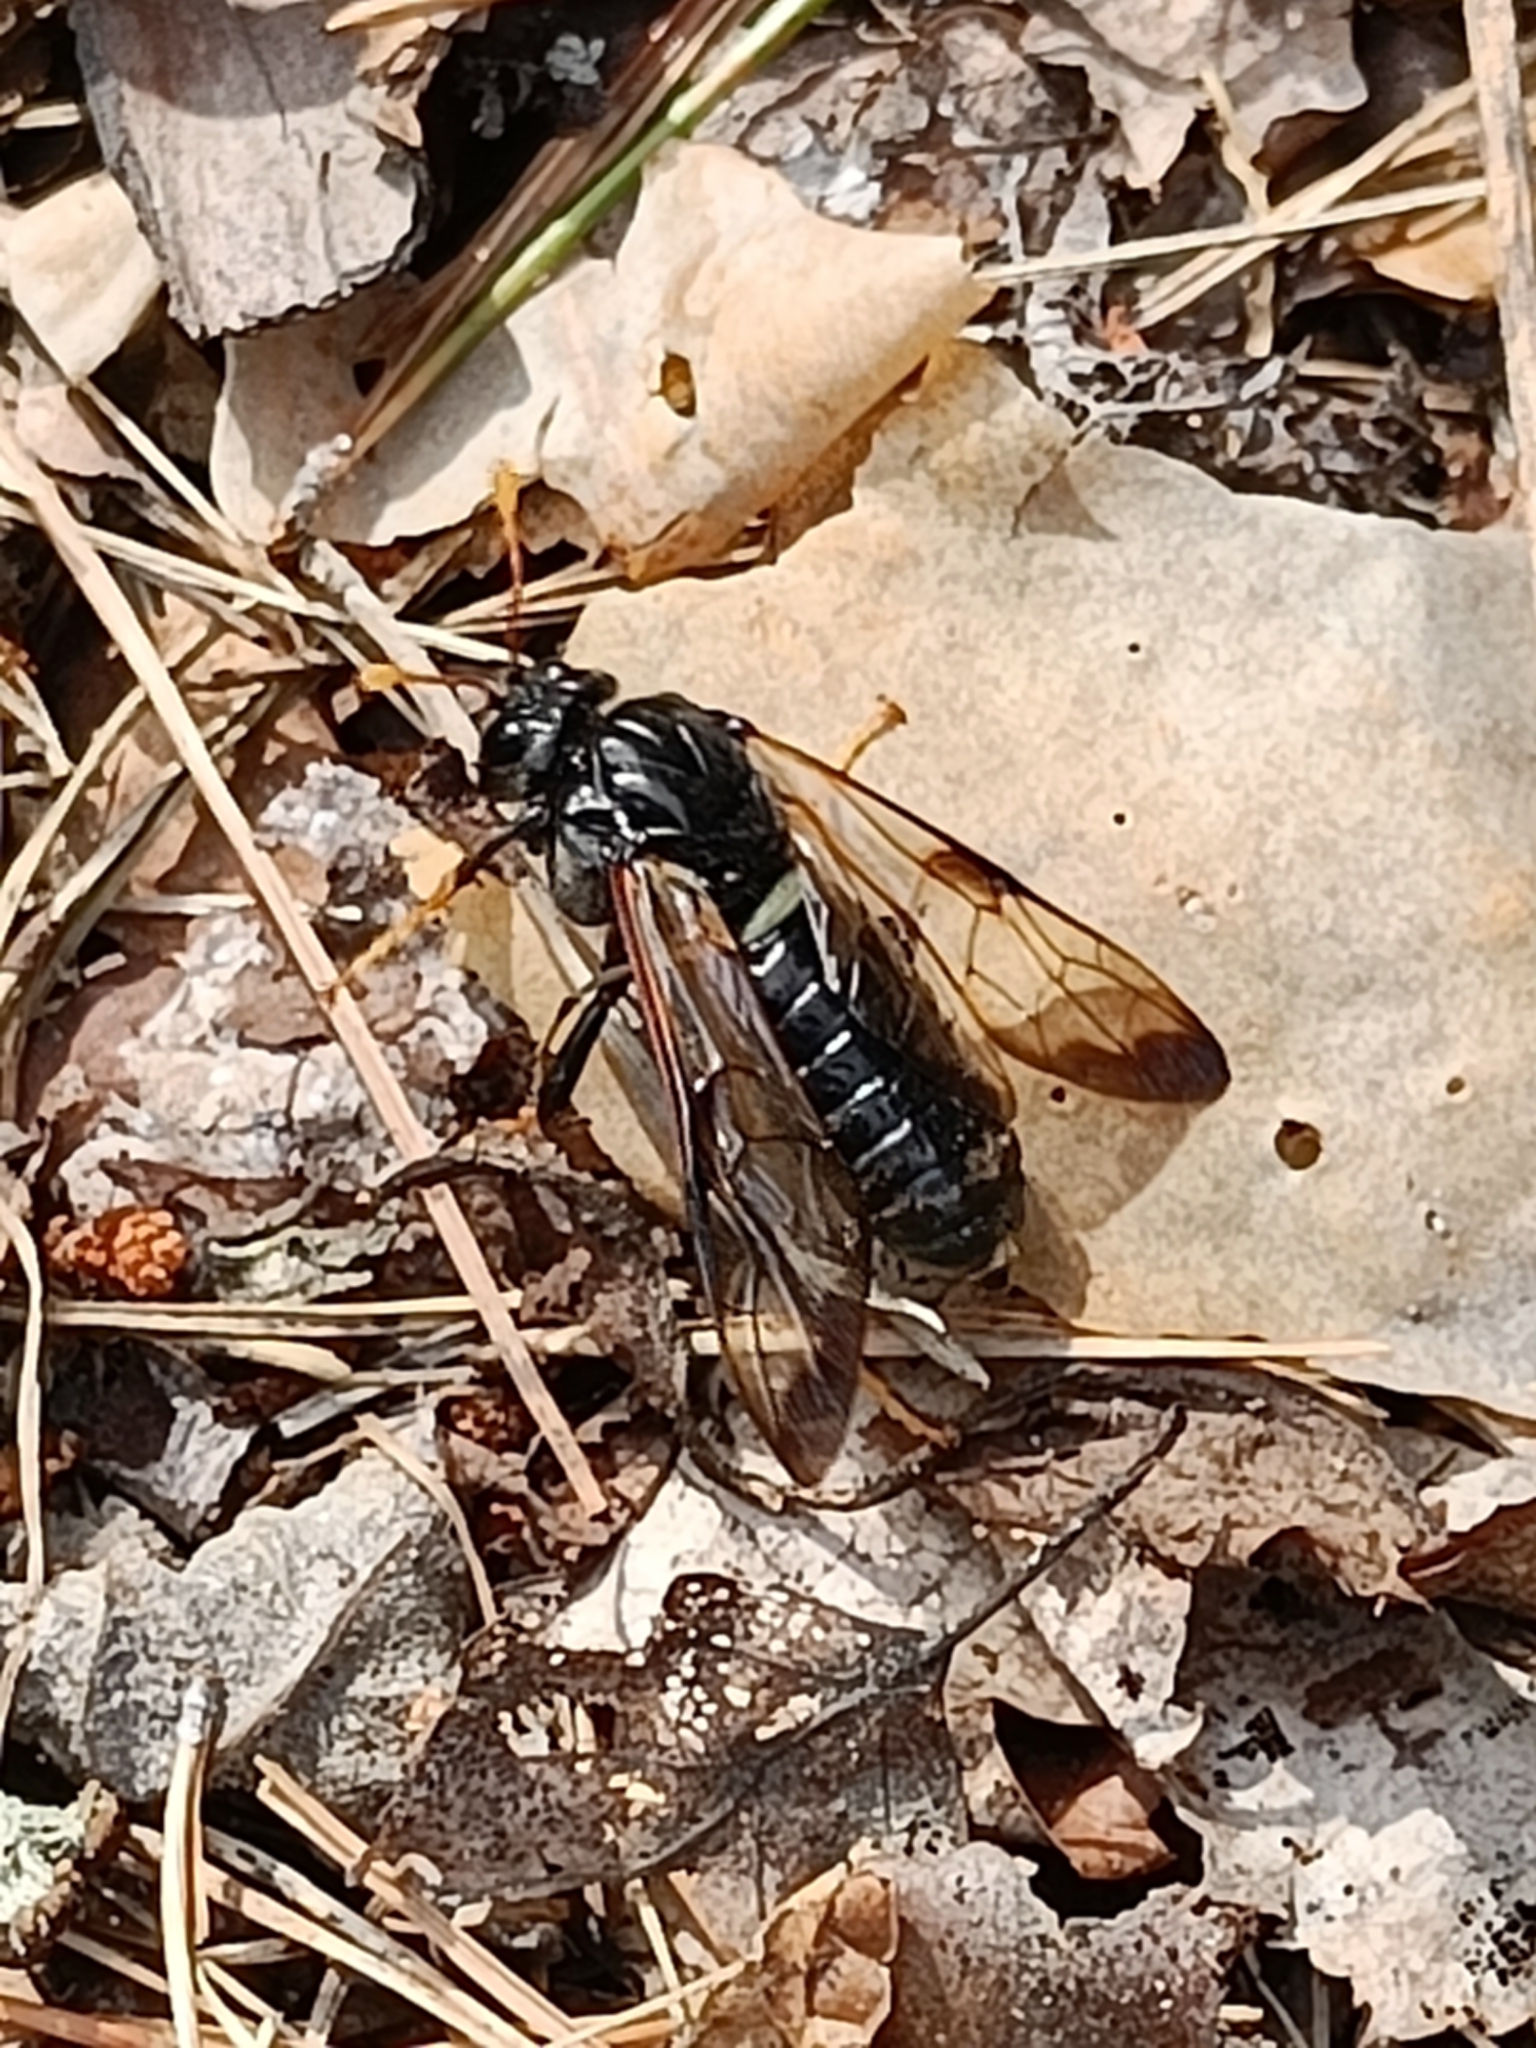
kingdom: Animalia
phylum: Arthropoda
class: Insecta
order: Hymenoptera
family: Cimbicidae
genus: Cimbex
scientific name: Cimbex femoratus
